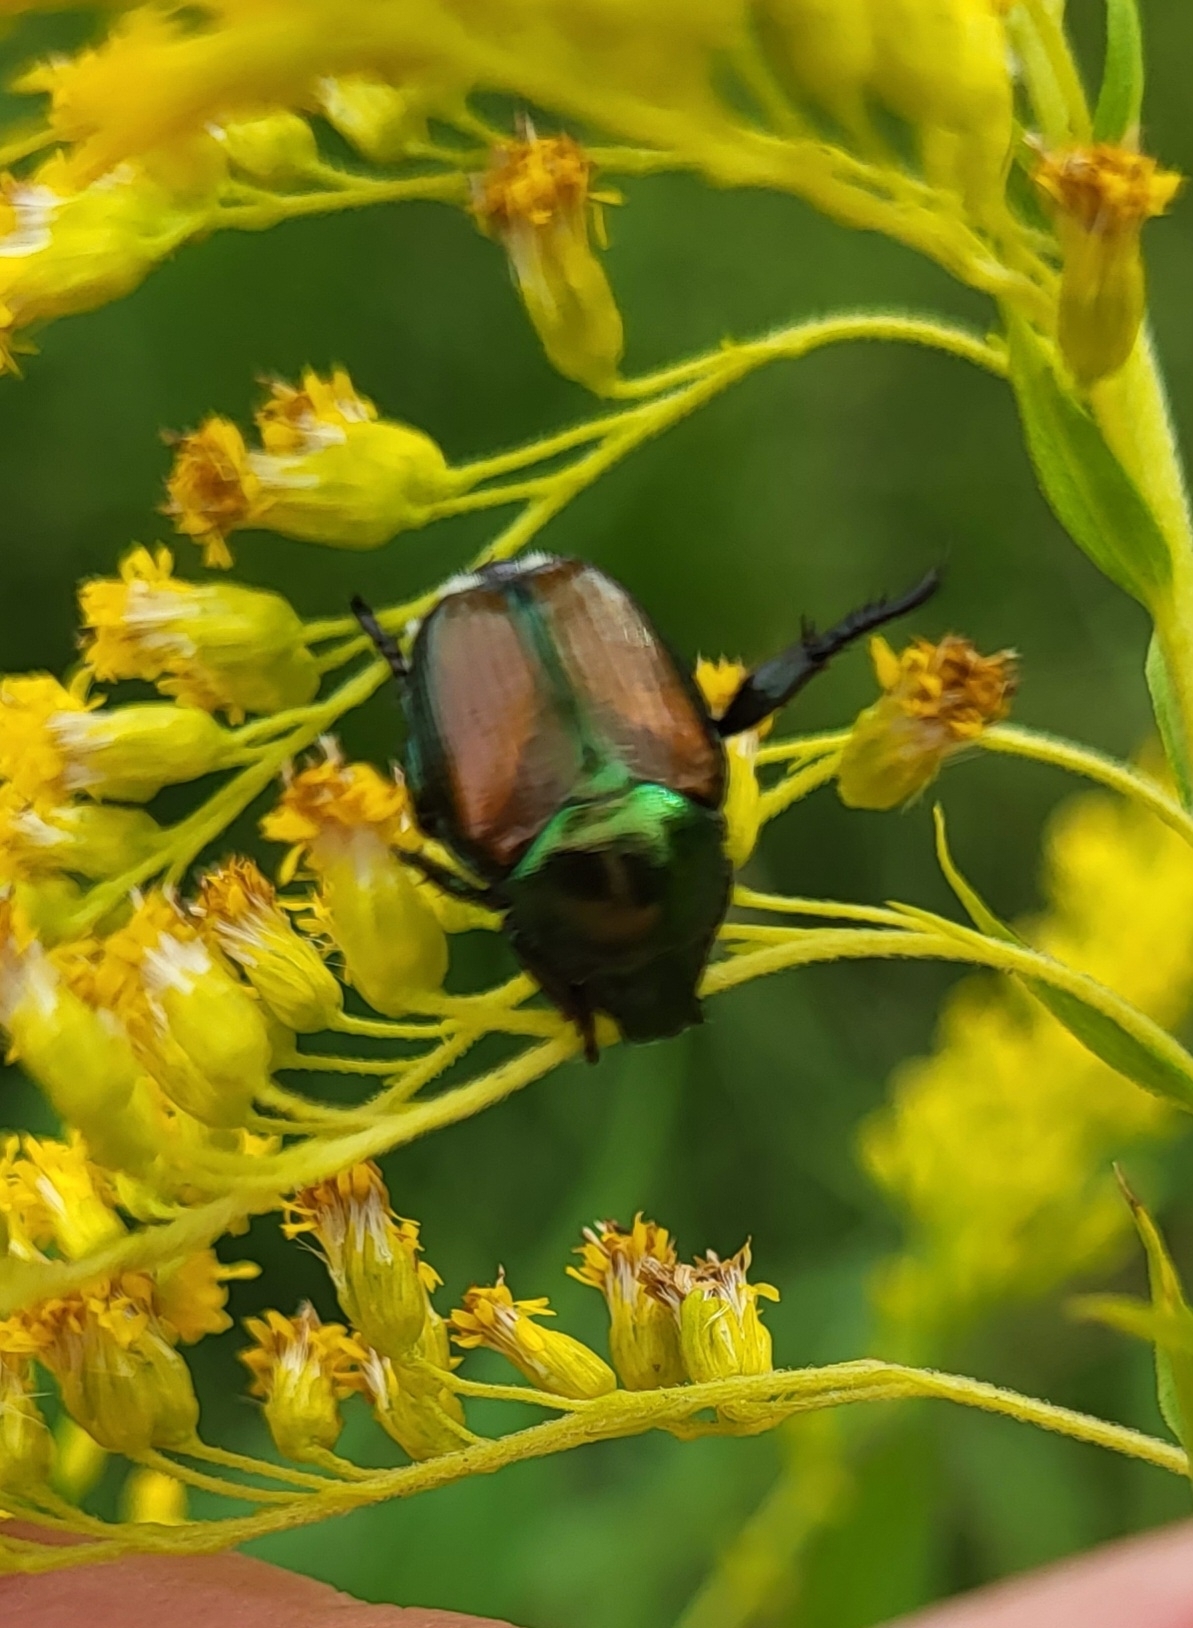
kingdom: Animalia
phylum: Arthropoda
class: Insecta
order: Coleoptera
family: Scarabaeidae
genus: Popillia
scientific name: Popillia japonica
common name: Japanese beetle
